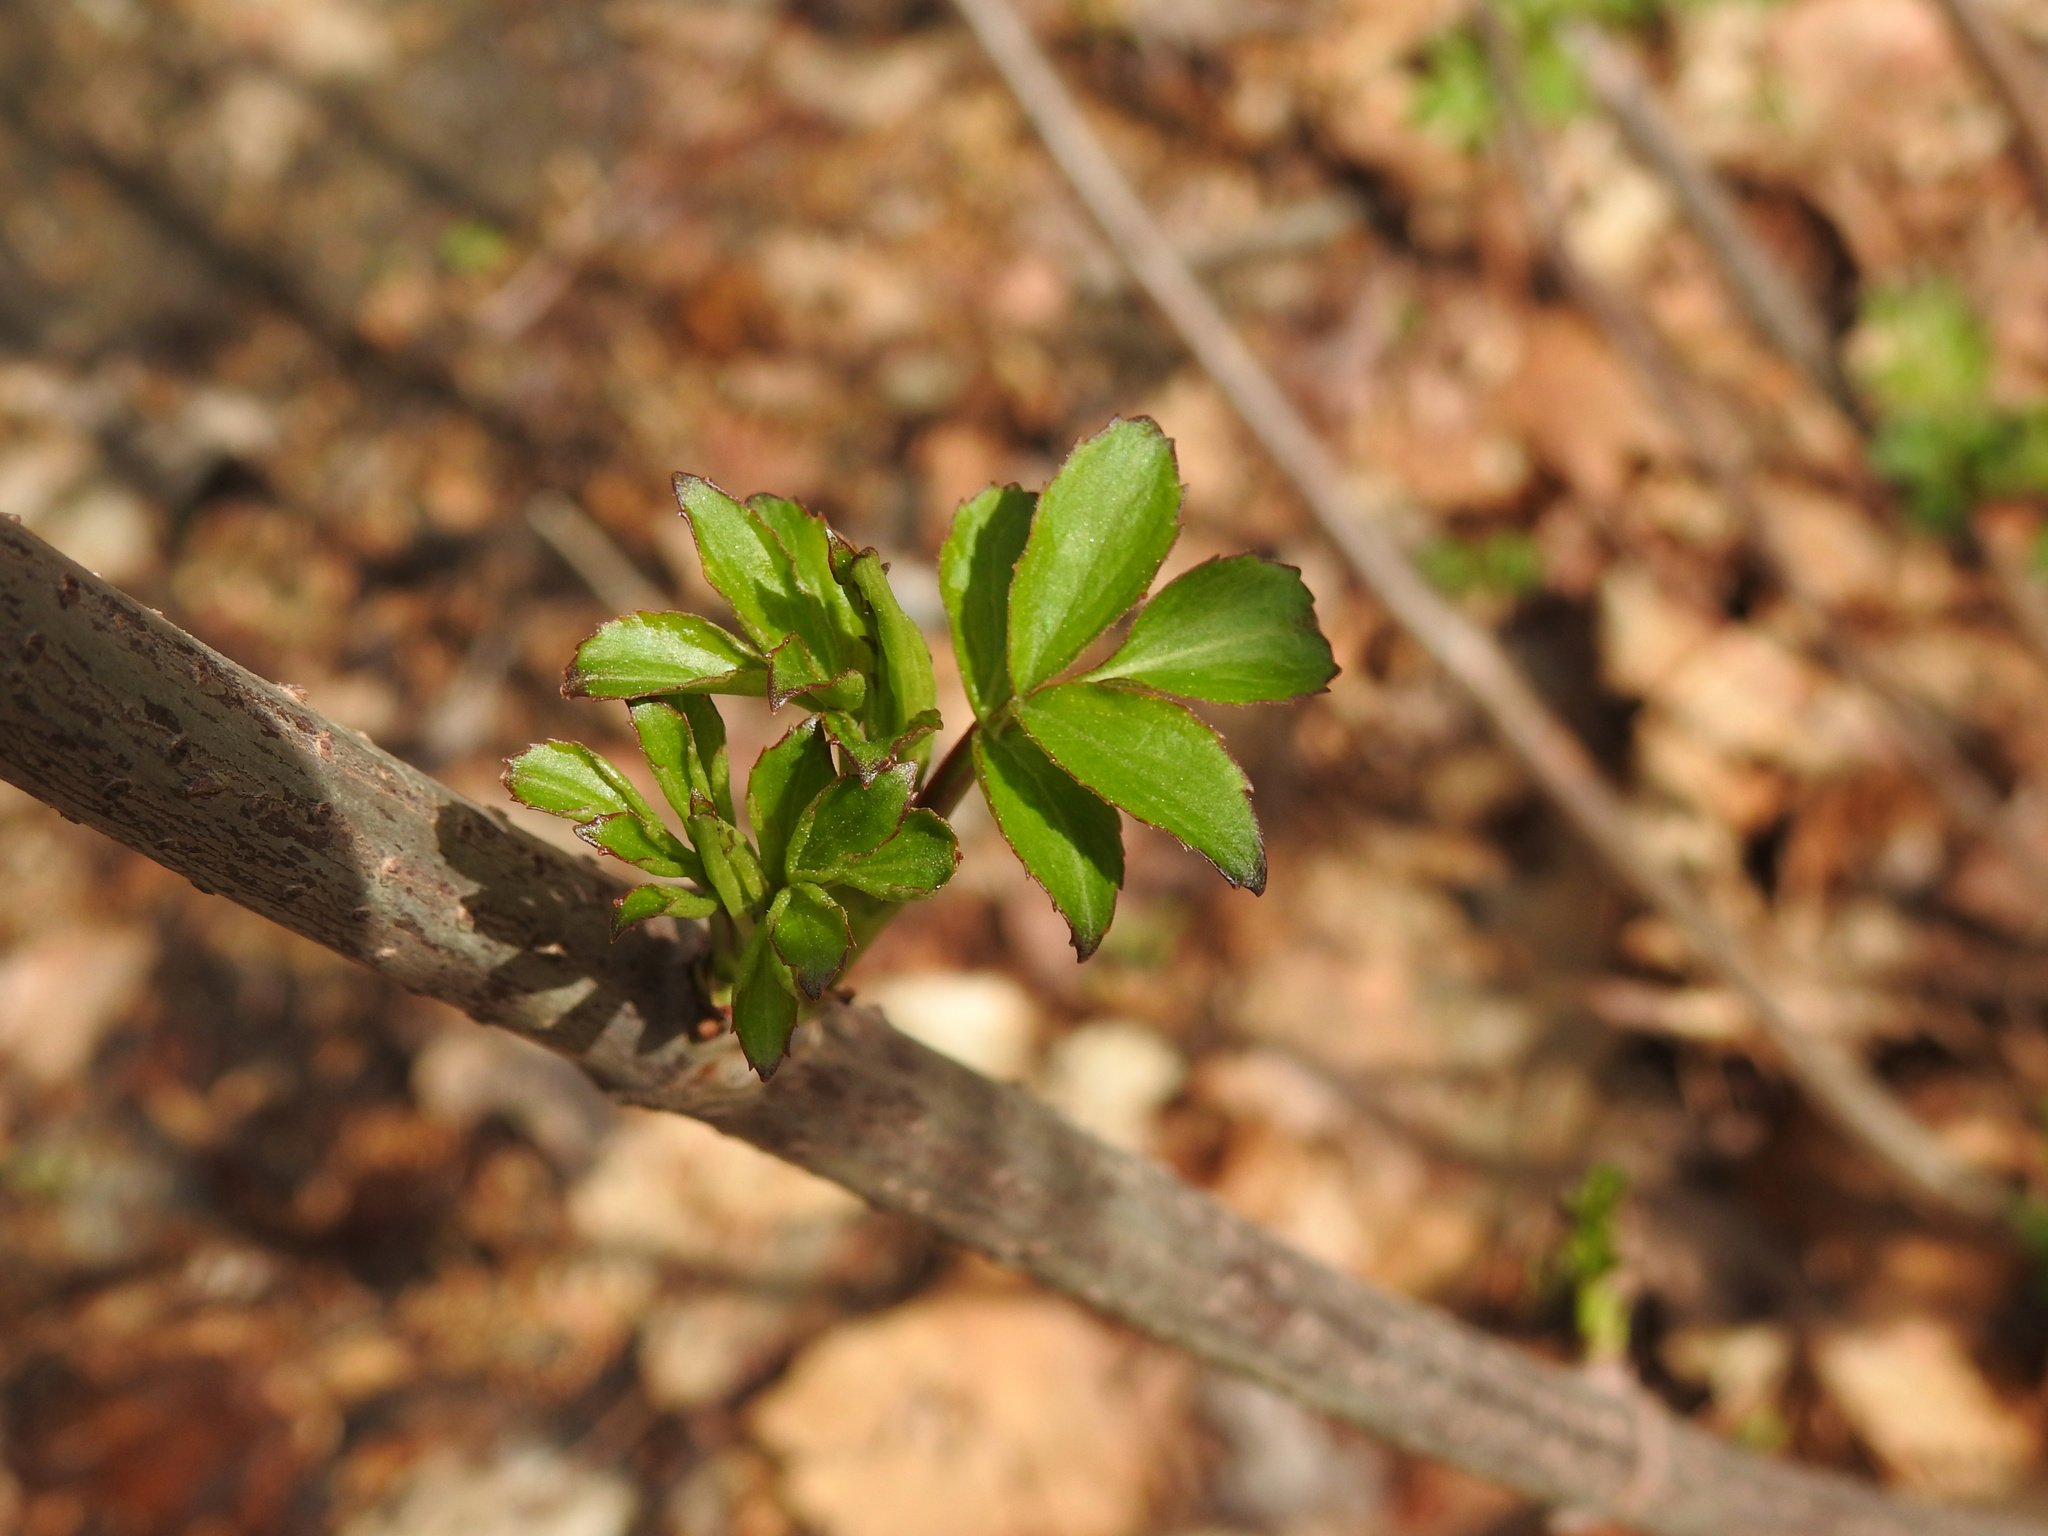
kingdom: Plantae
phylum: Tracheophyta
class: Magnoliopsida
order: Dipsacales
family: Viburnaceae
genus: Sambucus
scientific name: Sambucus canadensis
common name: American elder
